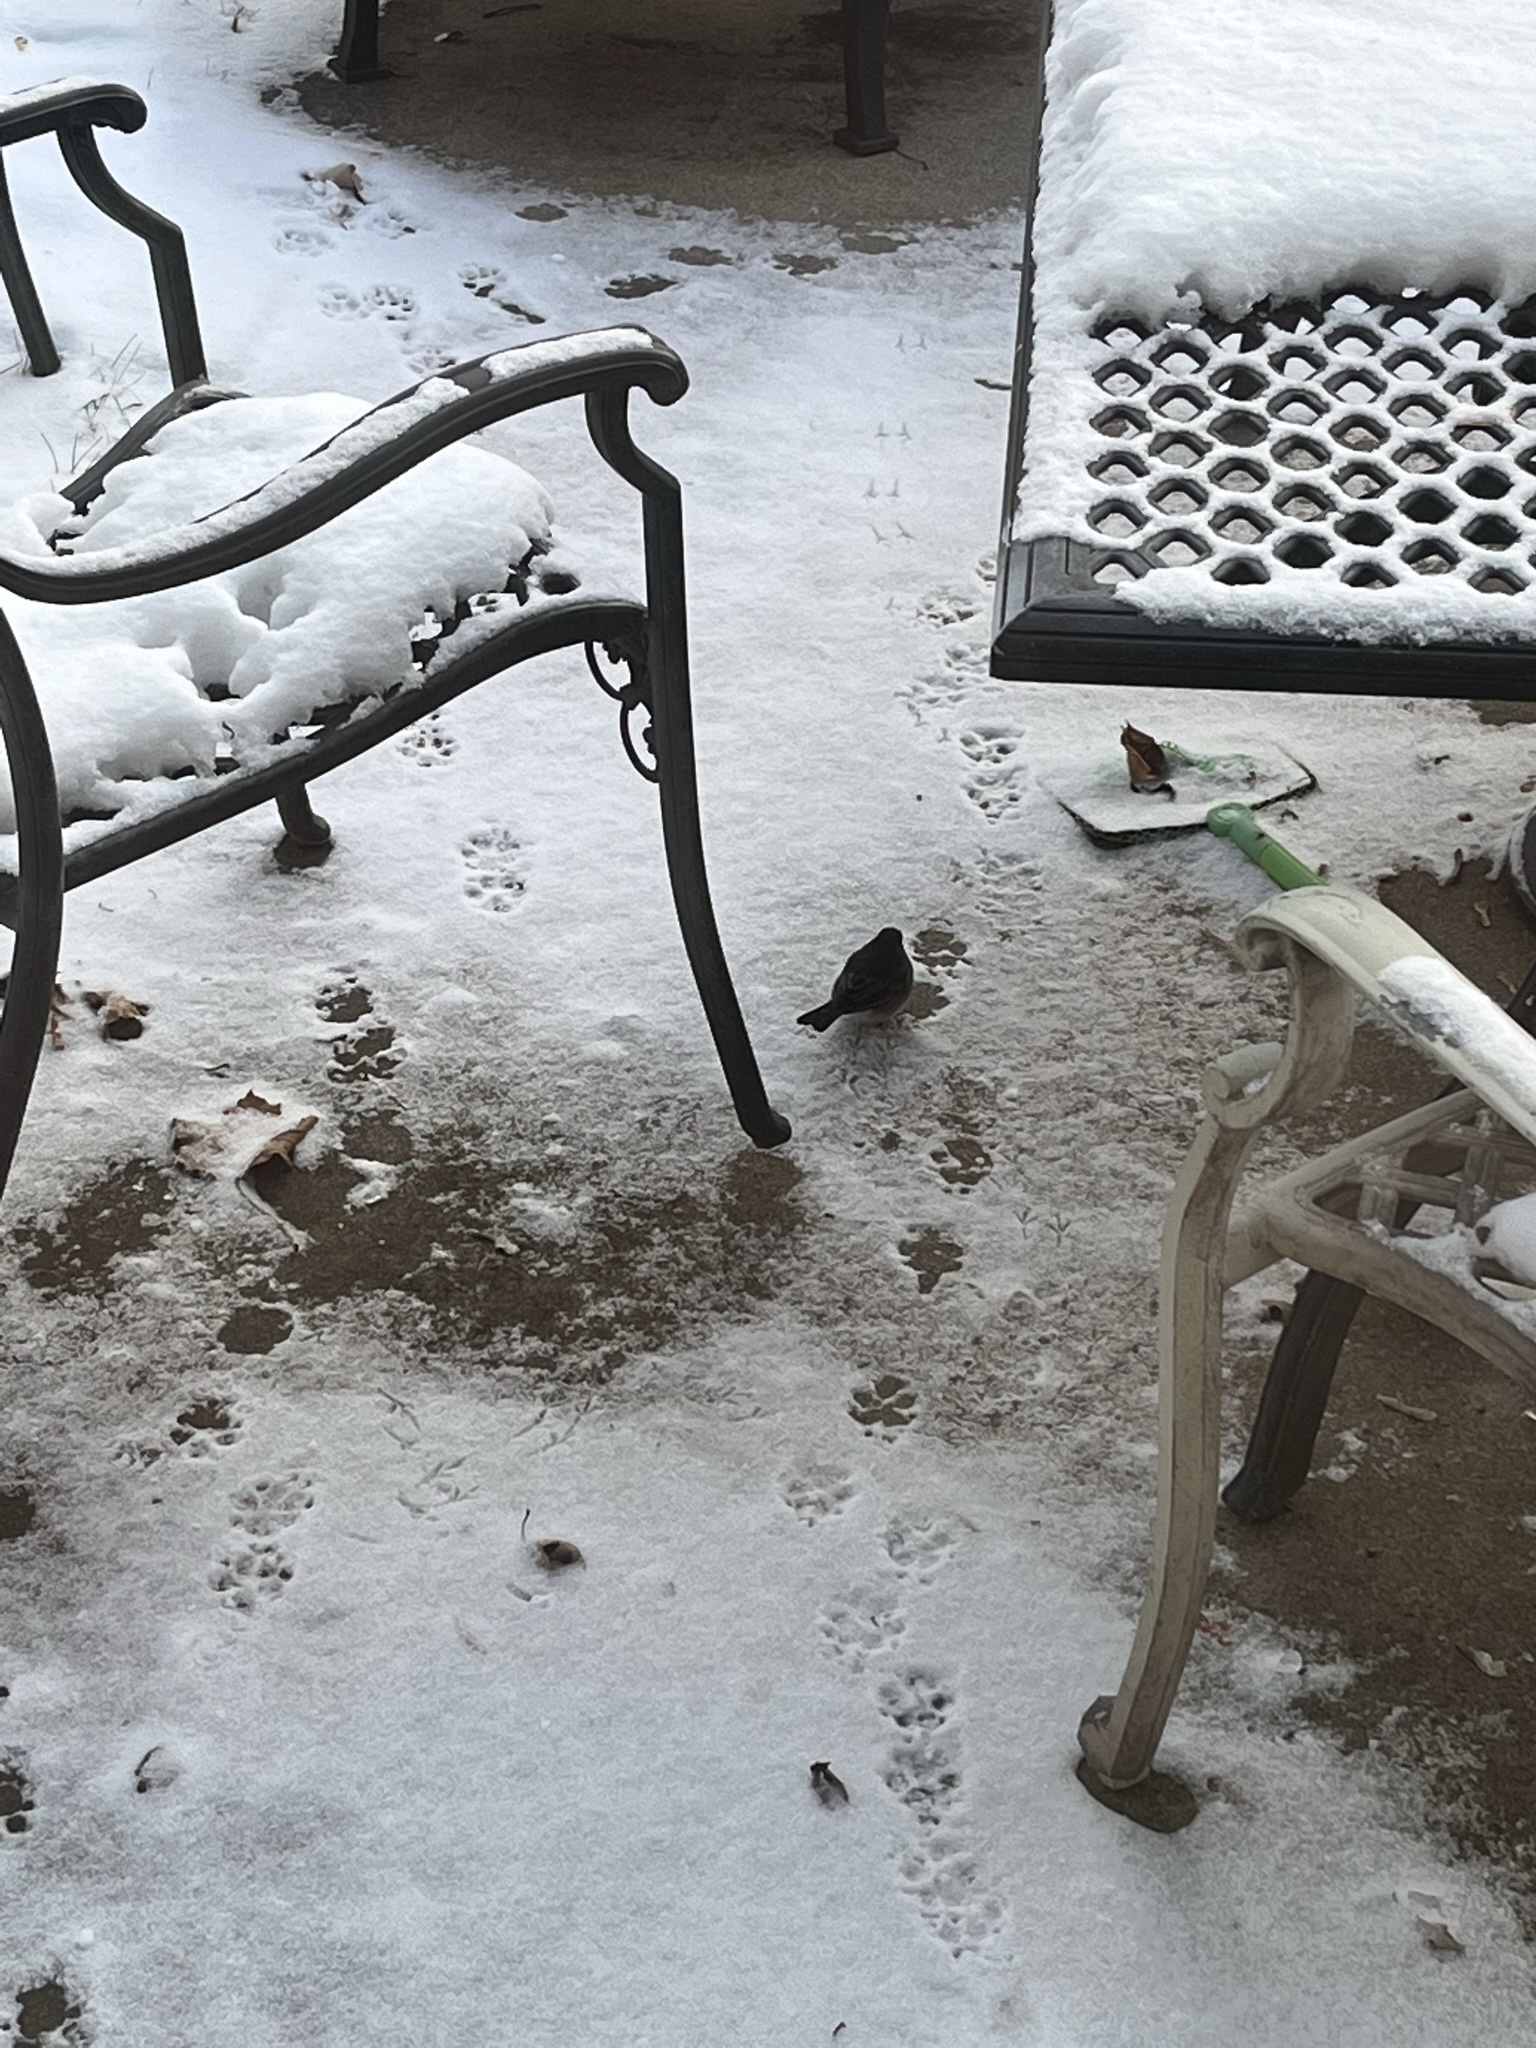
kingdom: Animalia
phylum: Chordata
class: Aves
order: Passeriformes
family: Passerellidae
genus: Junco
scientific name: Junco hyemalis
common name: Dark-eyed junco
